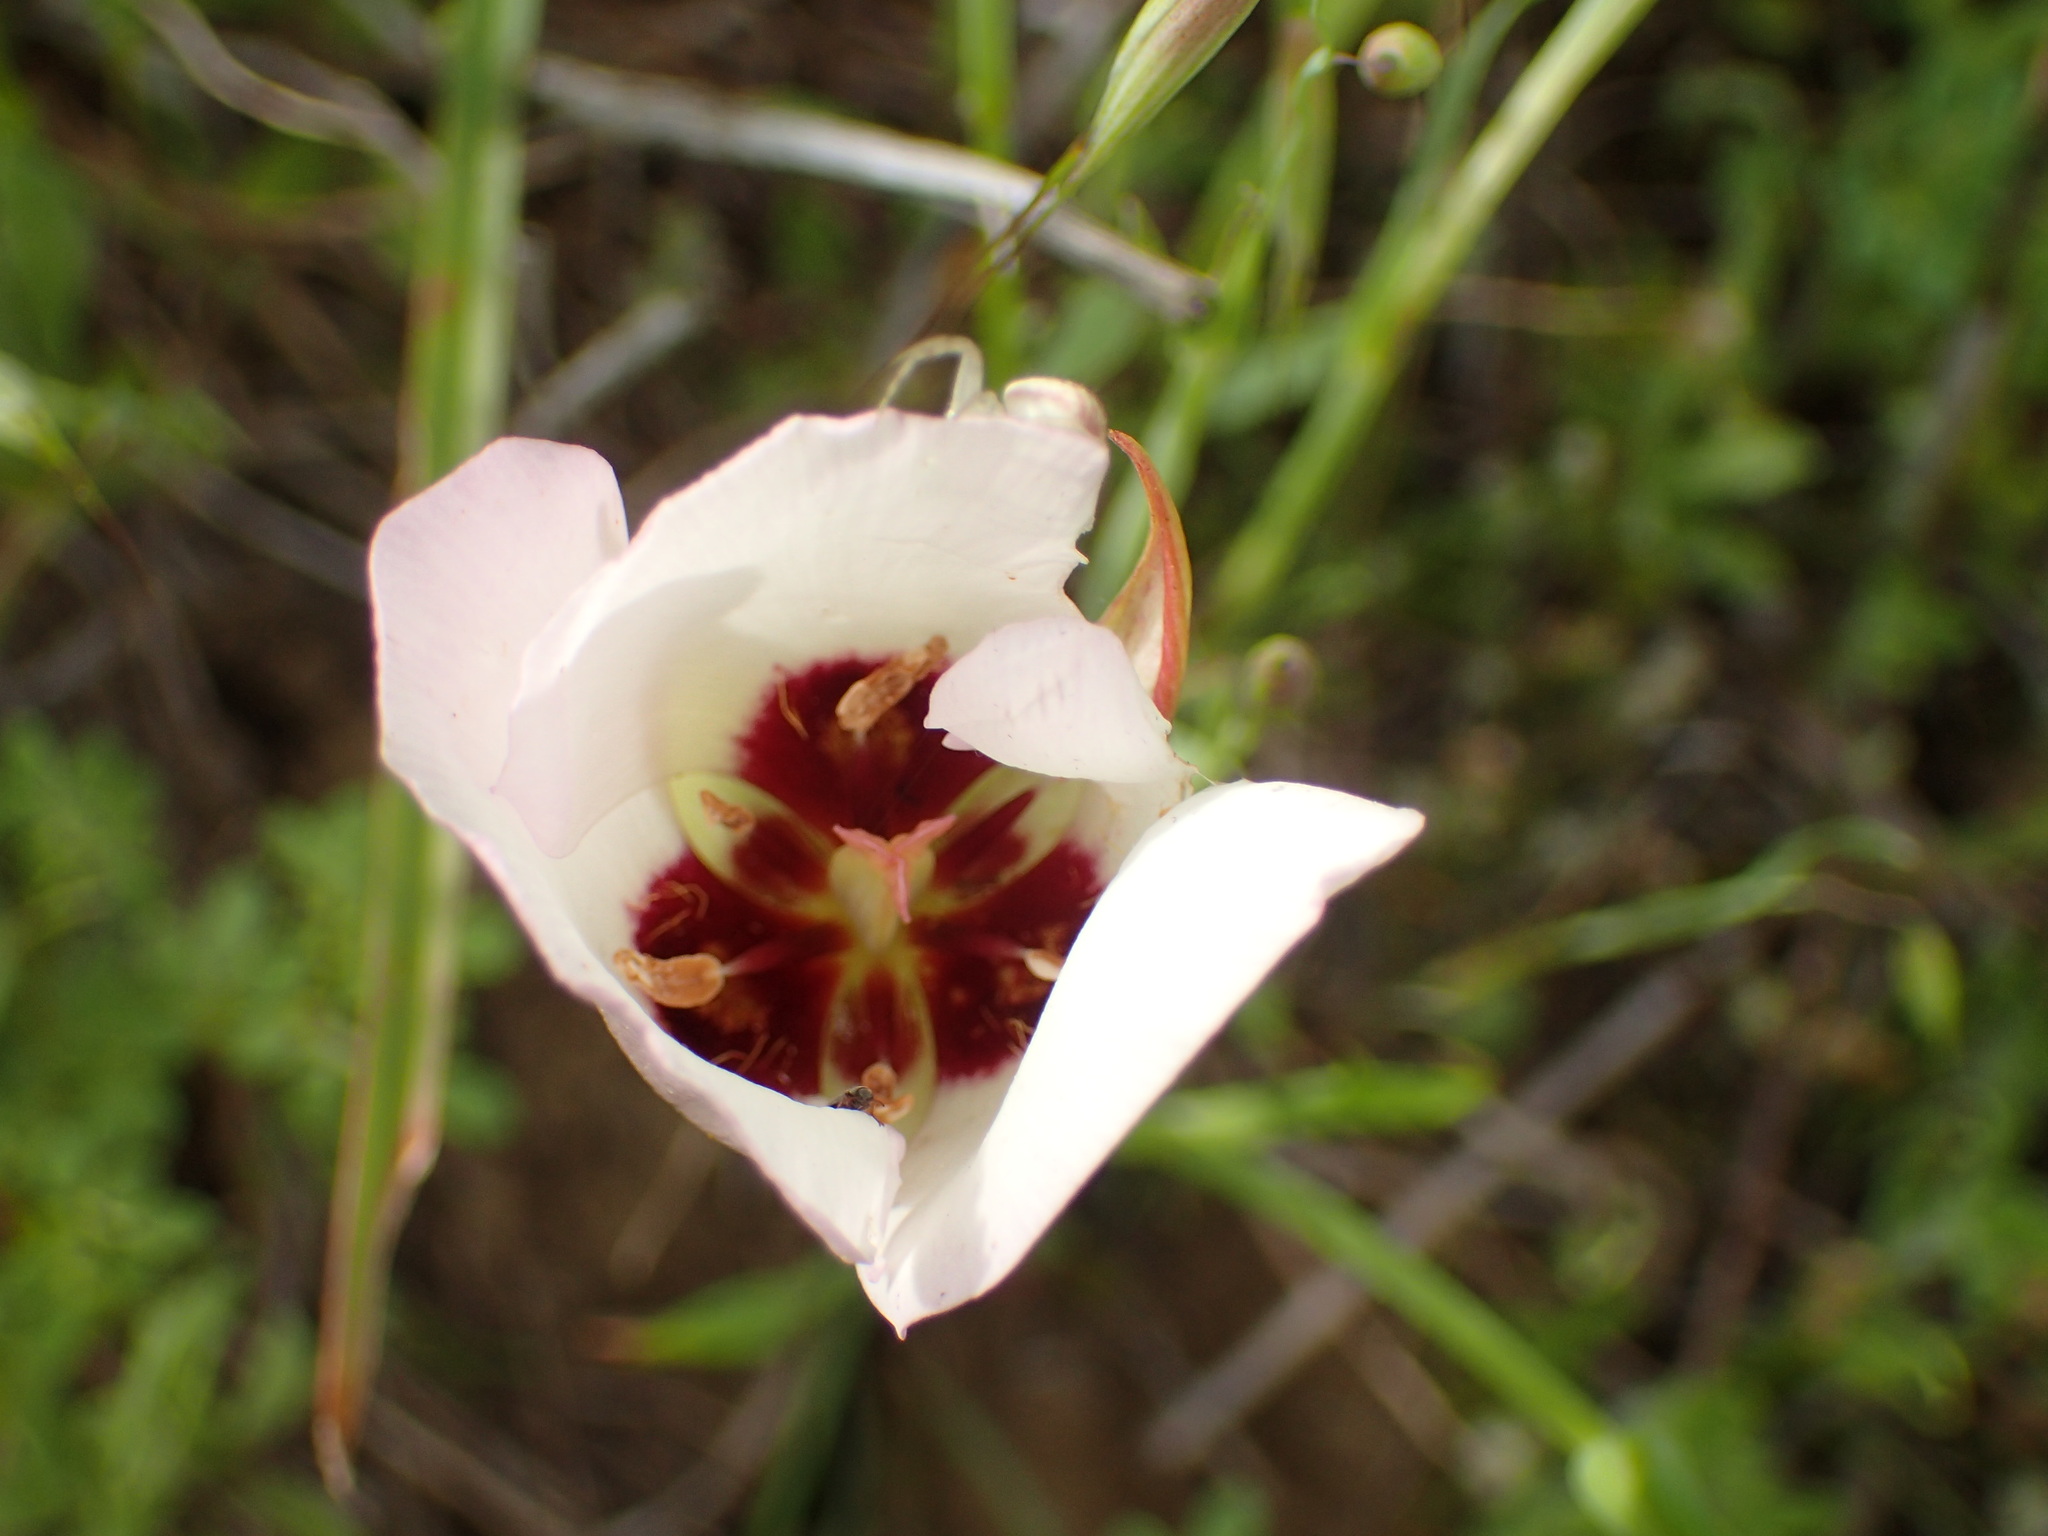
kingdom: Plantae
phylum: Tracheophyta
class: Liliopsida
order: Liliales
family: Liliaceae
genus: Calochortus
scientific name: Calochortus catalinae
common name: Catalina mariposa-lily
